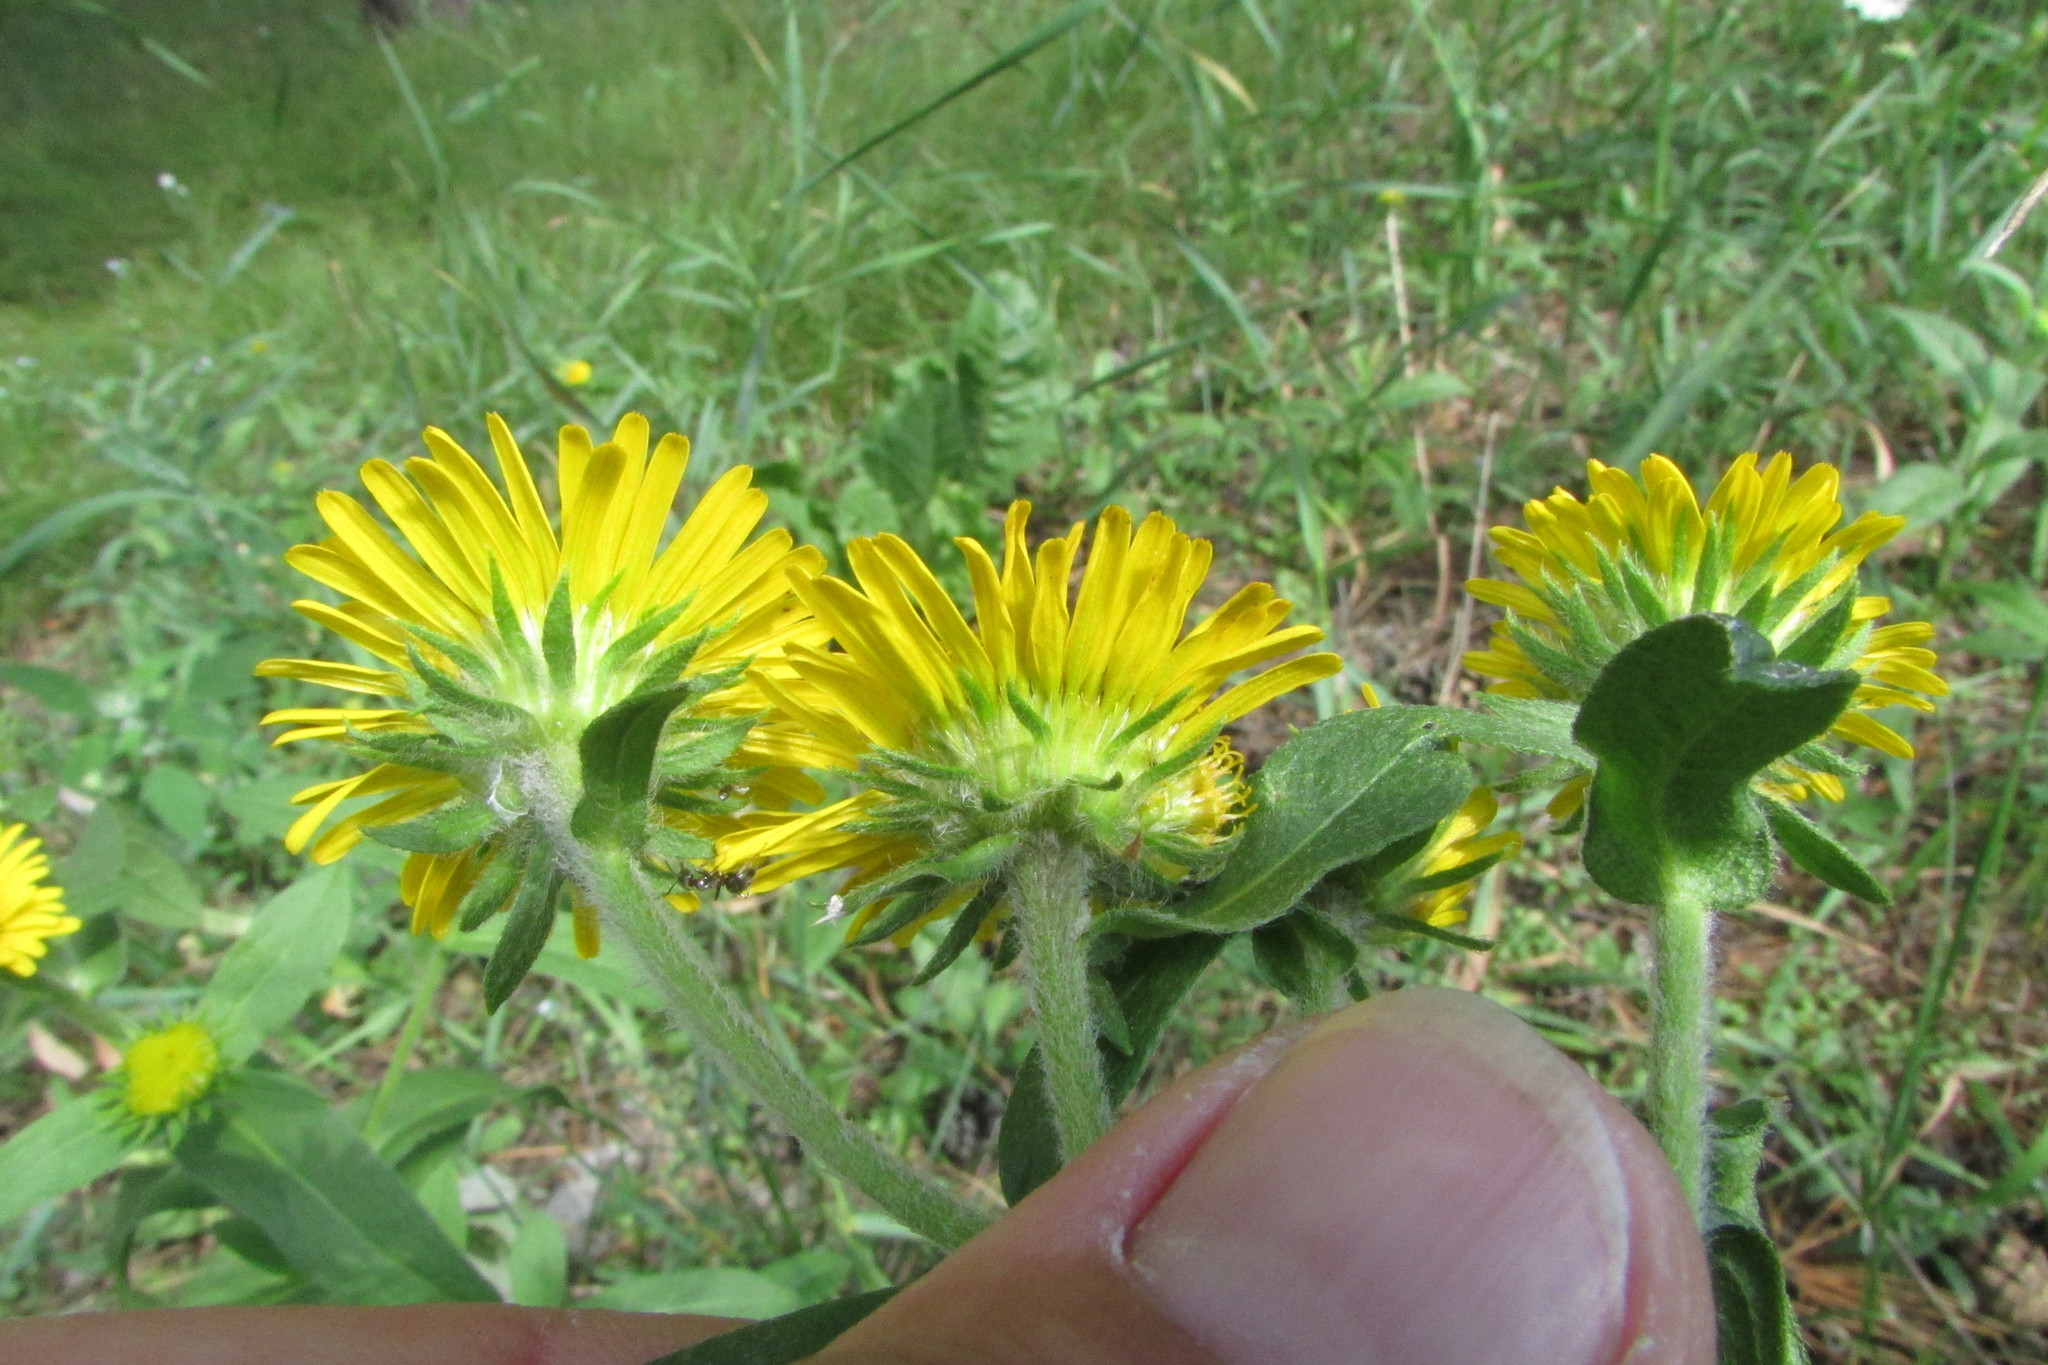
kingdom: Plantae
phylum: Tracheophyta
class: Magnoliopsida
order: Asterales
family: Asteraceae
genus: Pentanema
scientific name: Pentanema britannicum
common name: British elecampane
